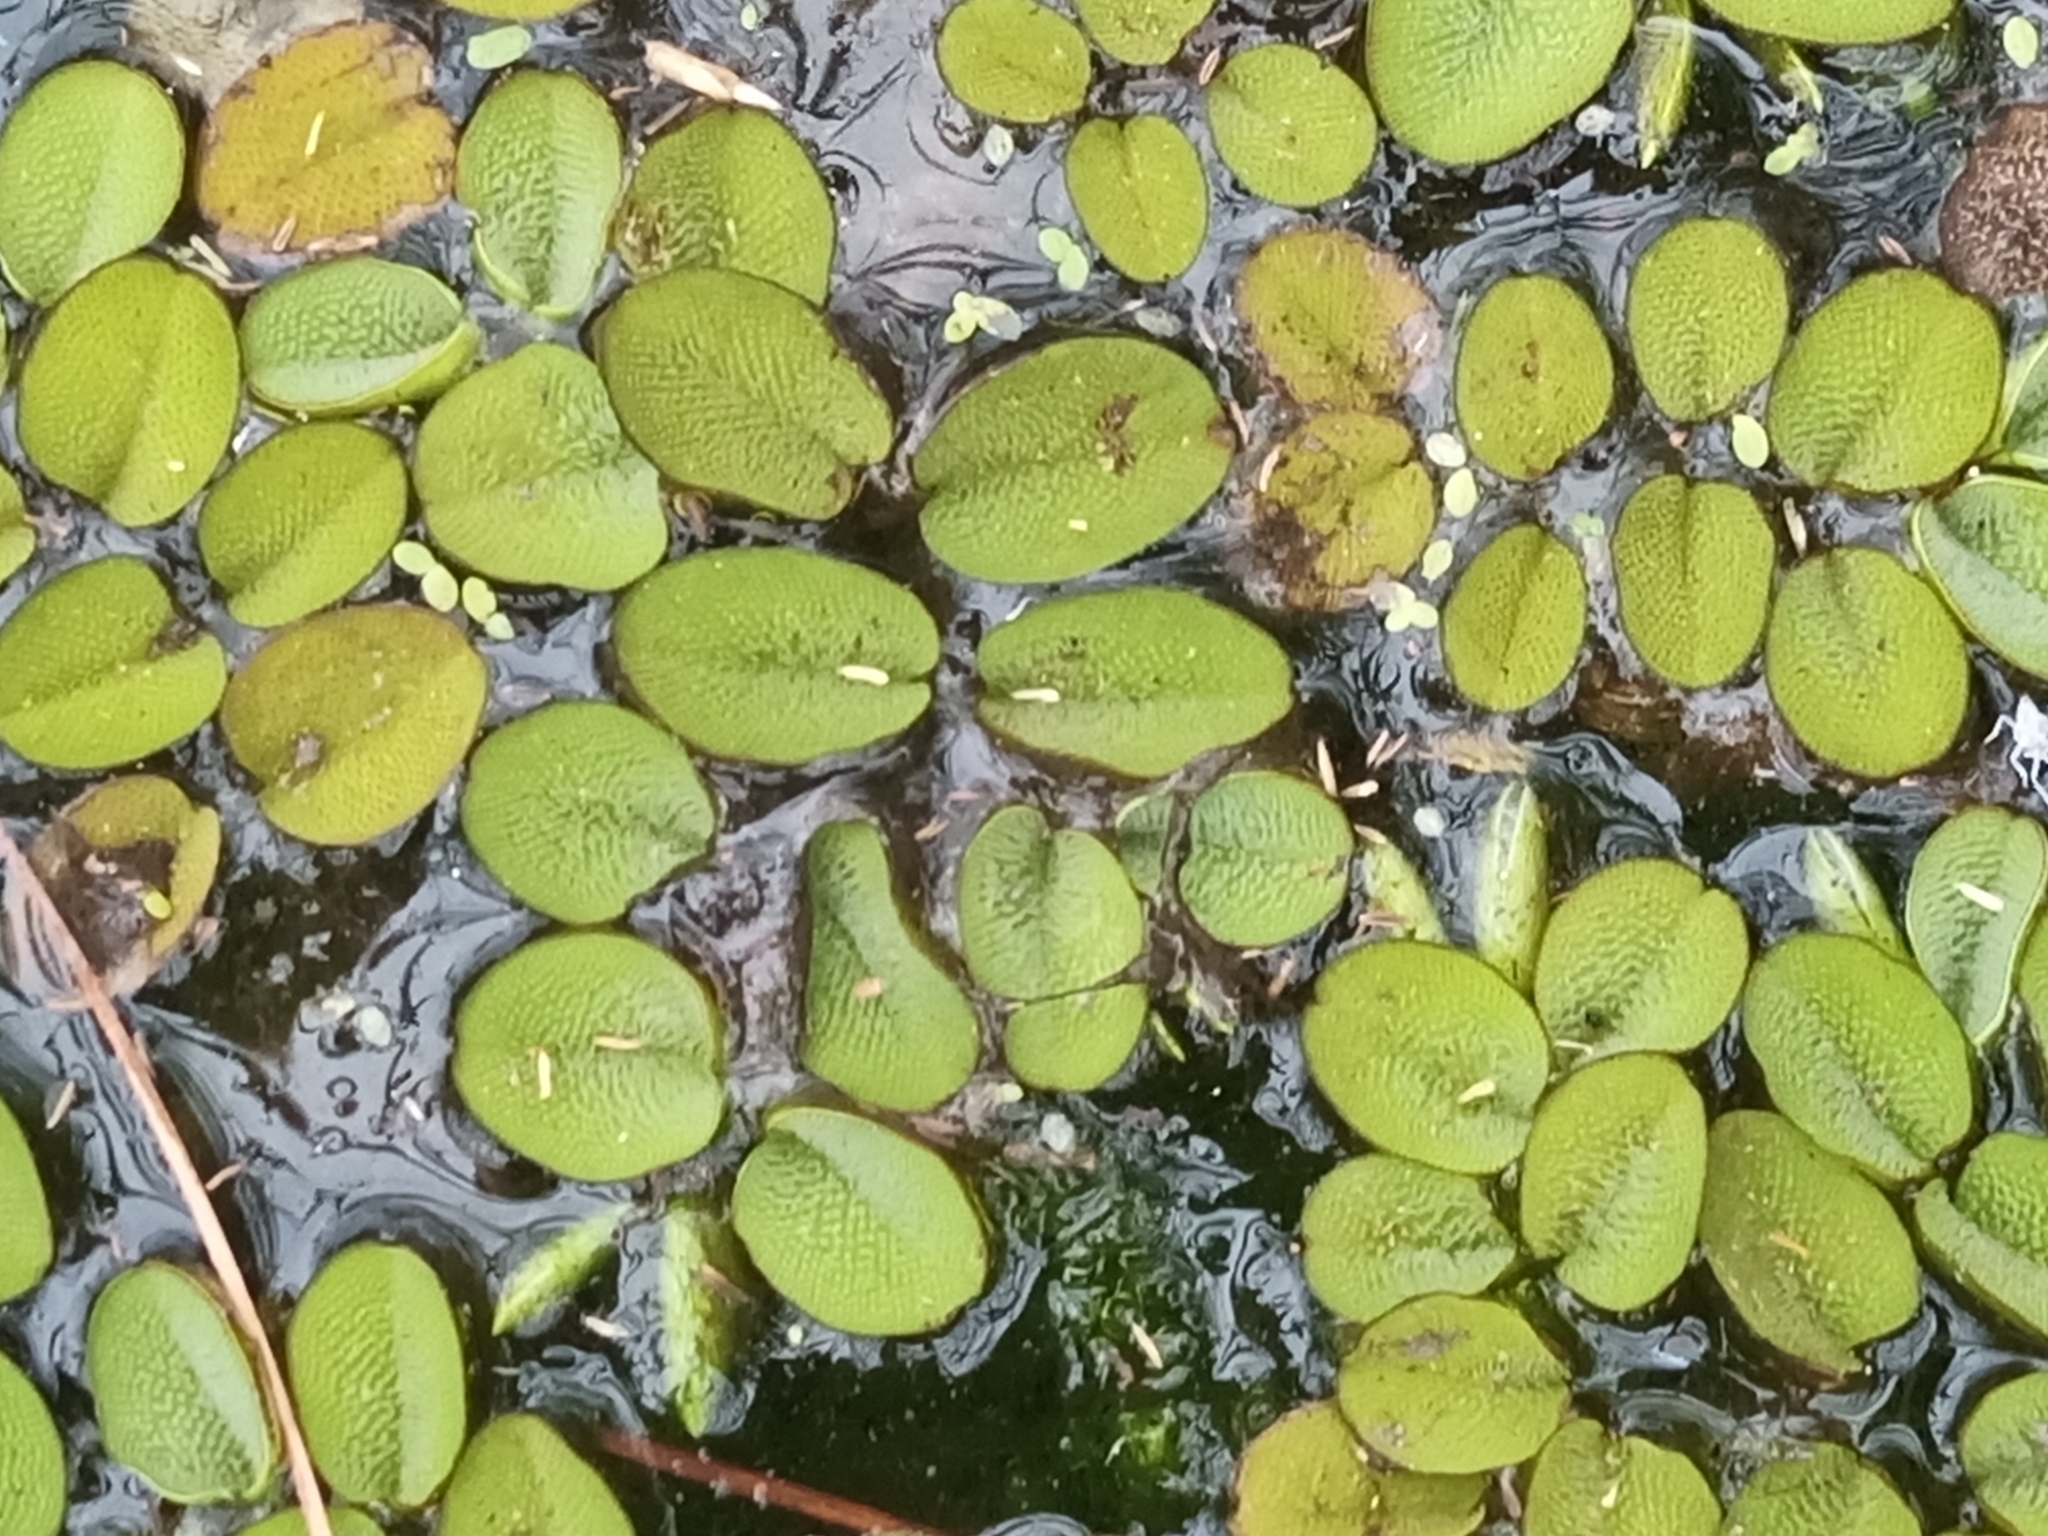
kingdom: Plantae
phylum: Tracheophyta
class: Polypodiopsida
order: Salviniales
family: Salviniaceae
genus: Salvinia
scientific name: Salvinia molesta
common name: Kariba weed
